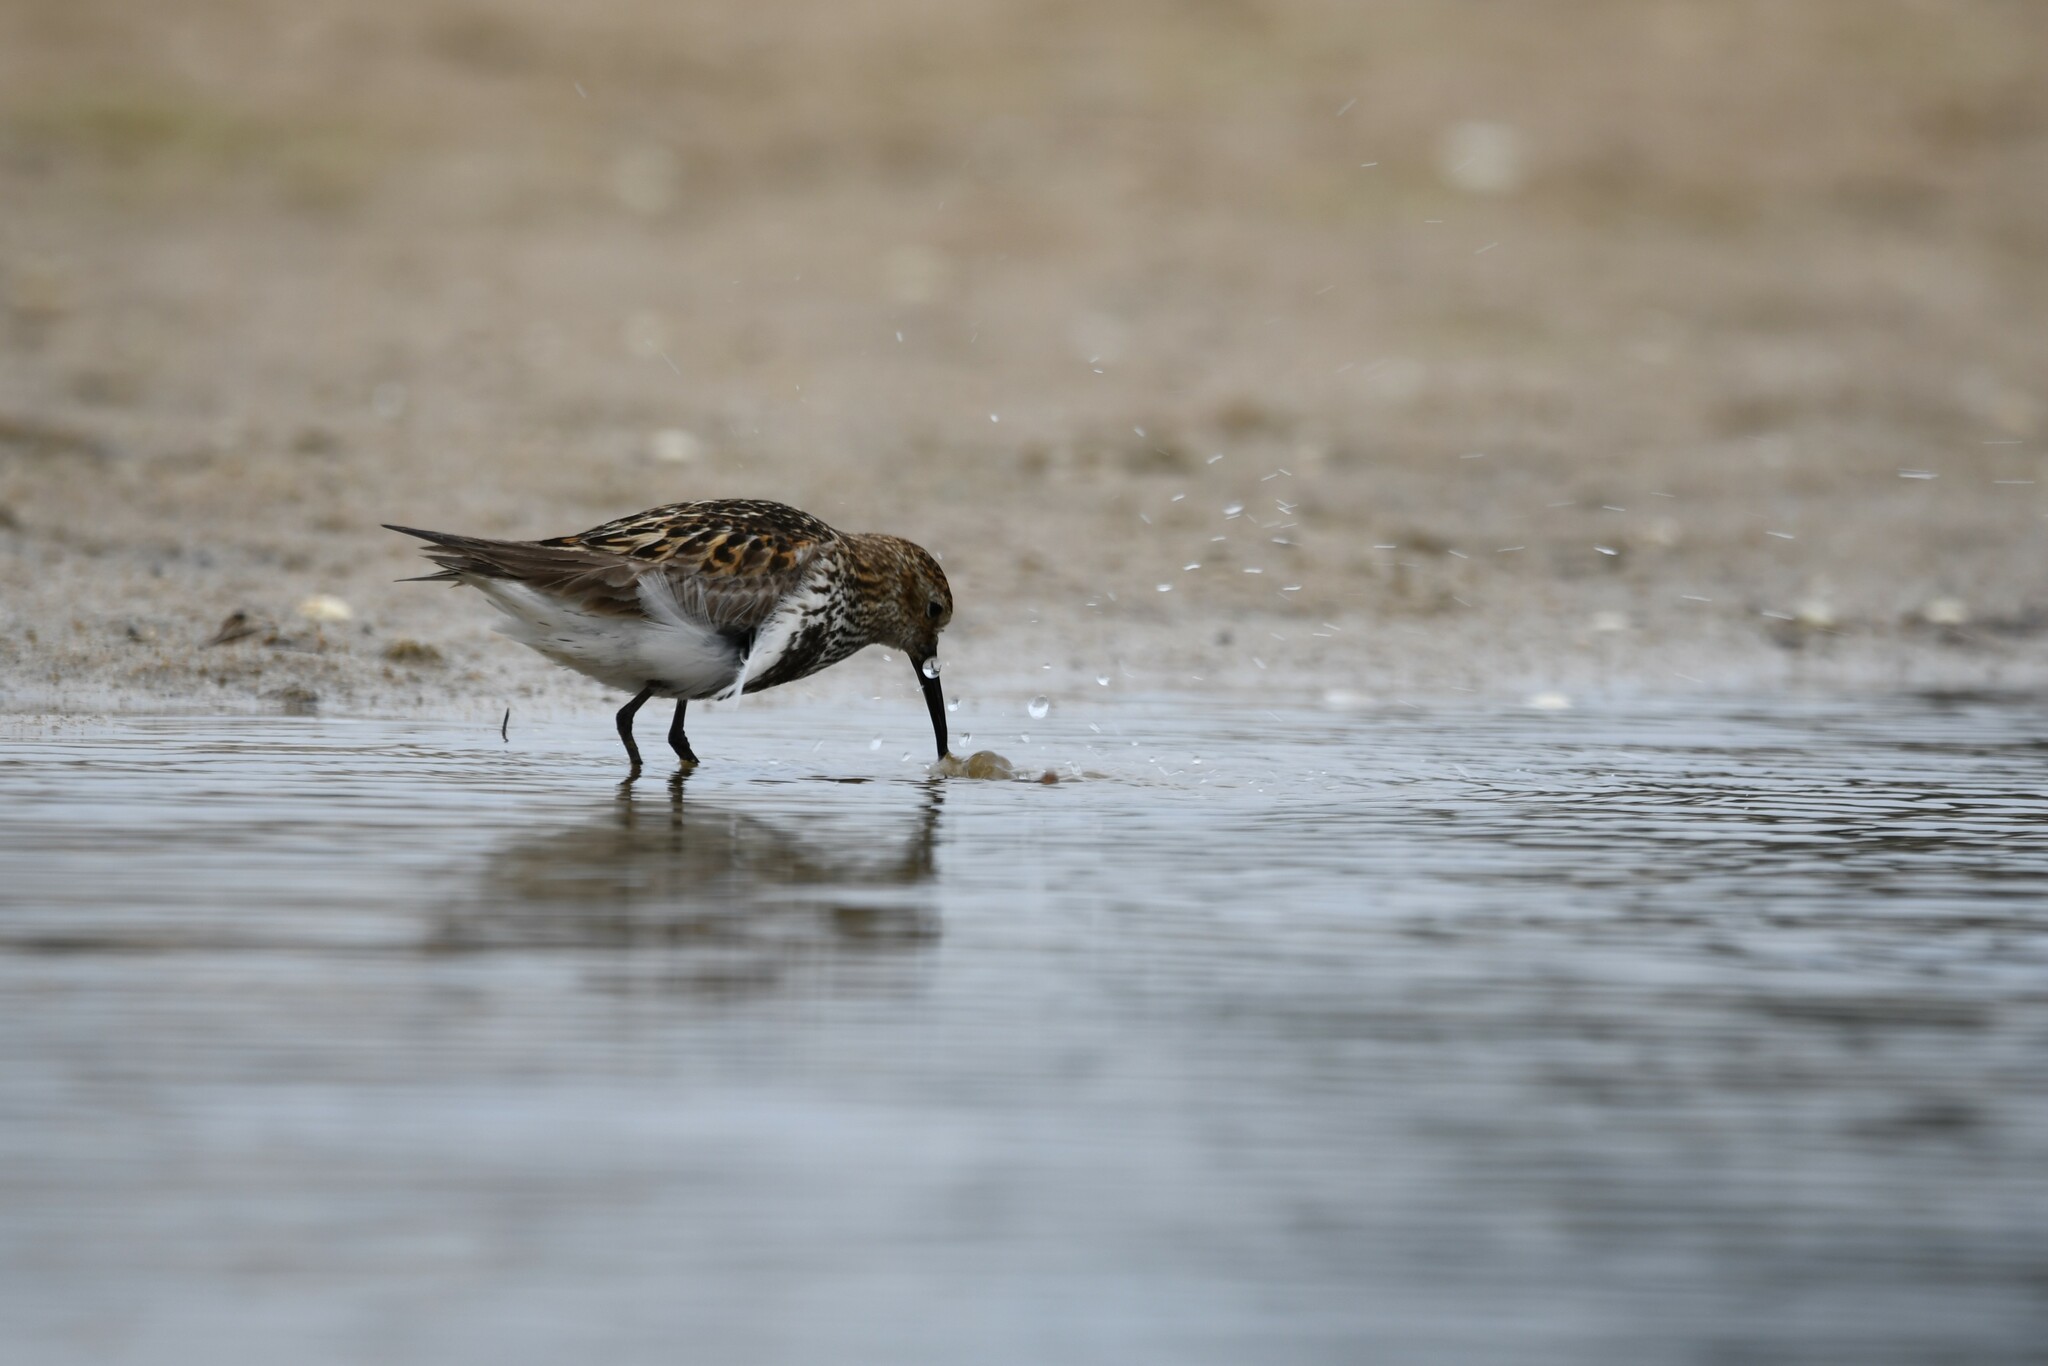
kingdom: Animalia
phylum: Chordata
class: Aves
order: Charadriiformes
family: Scolopacidae
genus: Calidris
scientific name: Calidris alpina
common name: Dunlin
